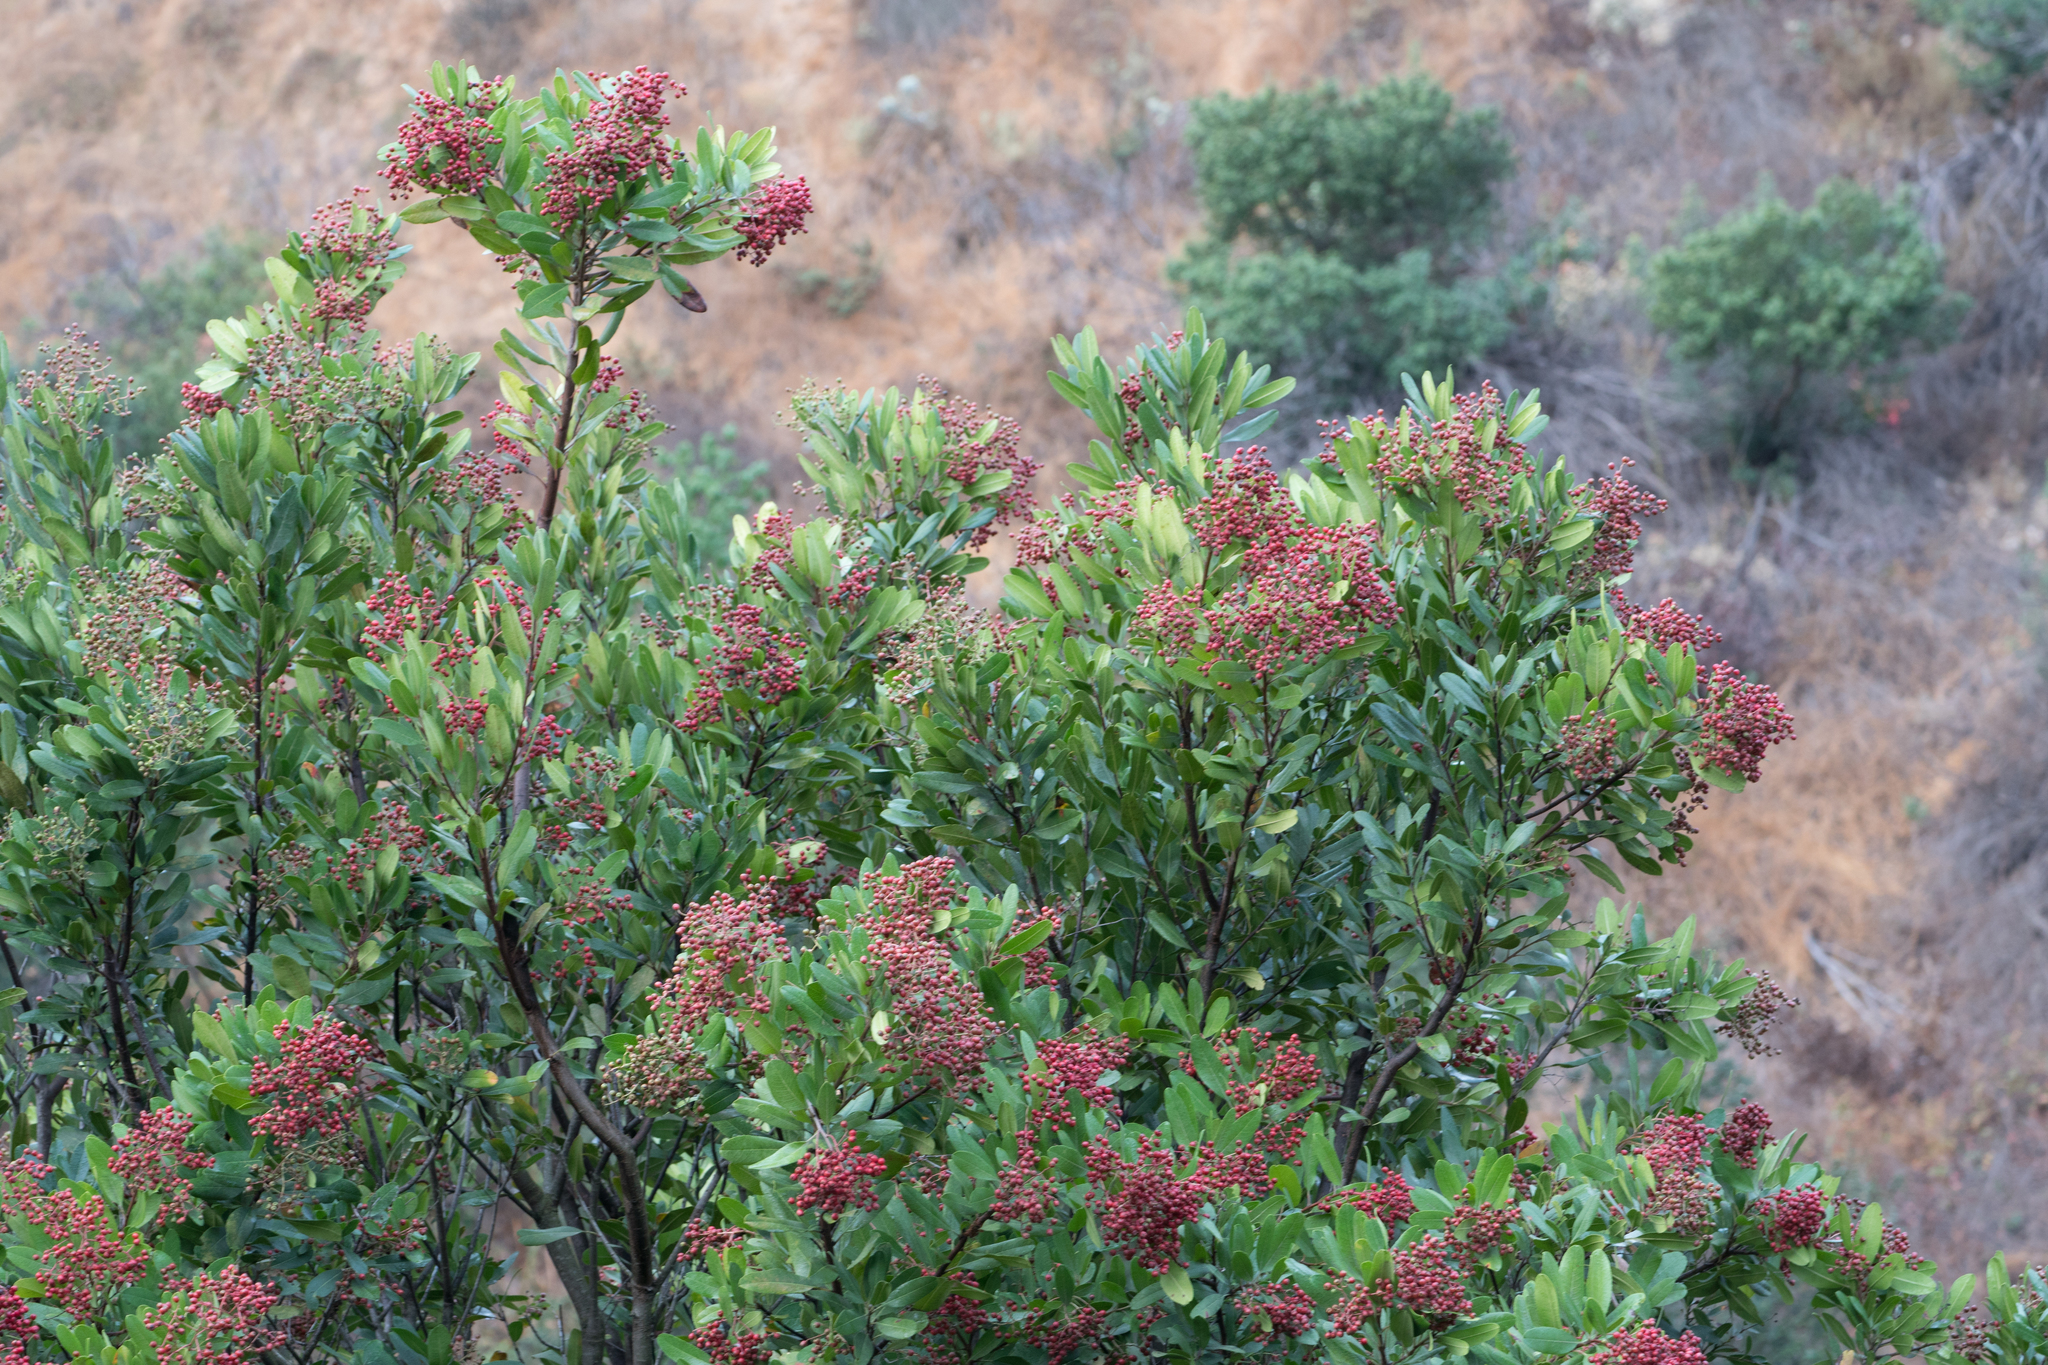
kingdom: Plantae
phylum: Tracheophyta
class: Magnoliopsida
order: Rosales
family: Rosaceae
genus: Heteromeles
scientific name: Heteromeles arbutifolia
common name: California-holly
